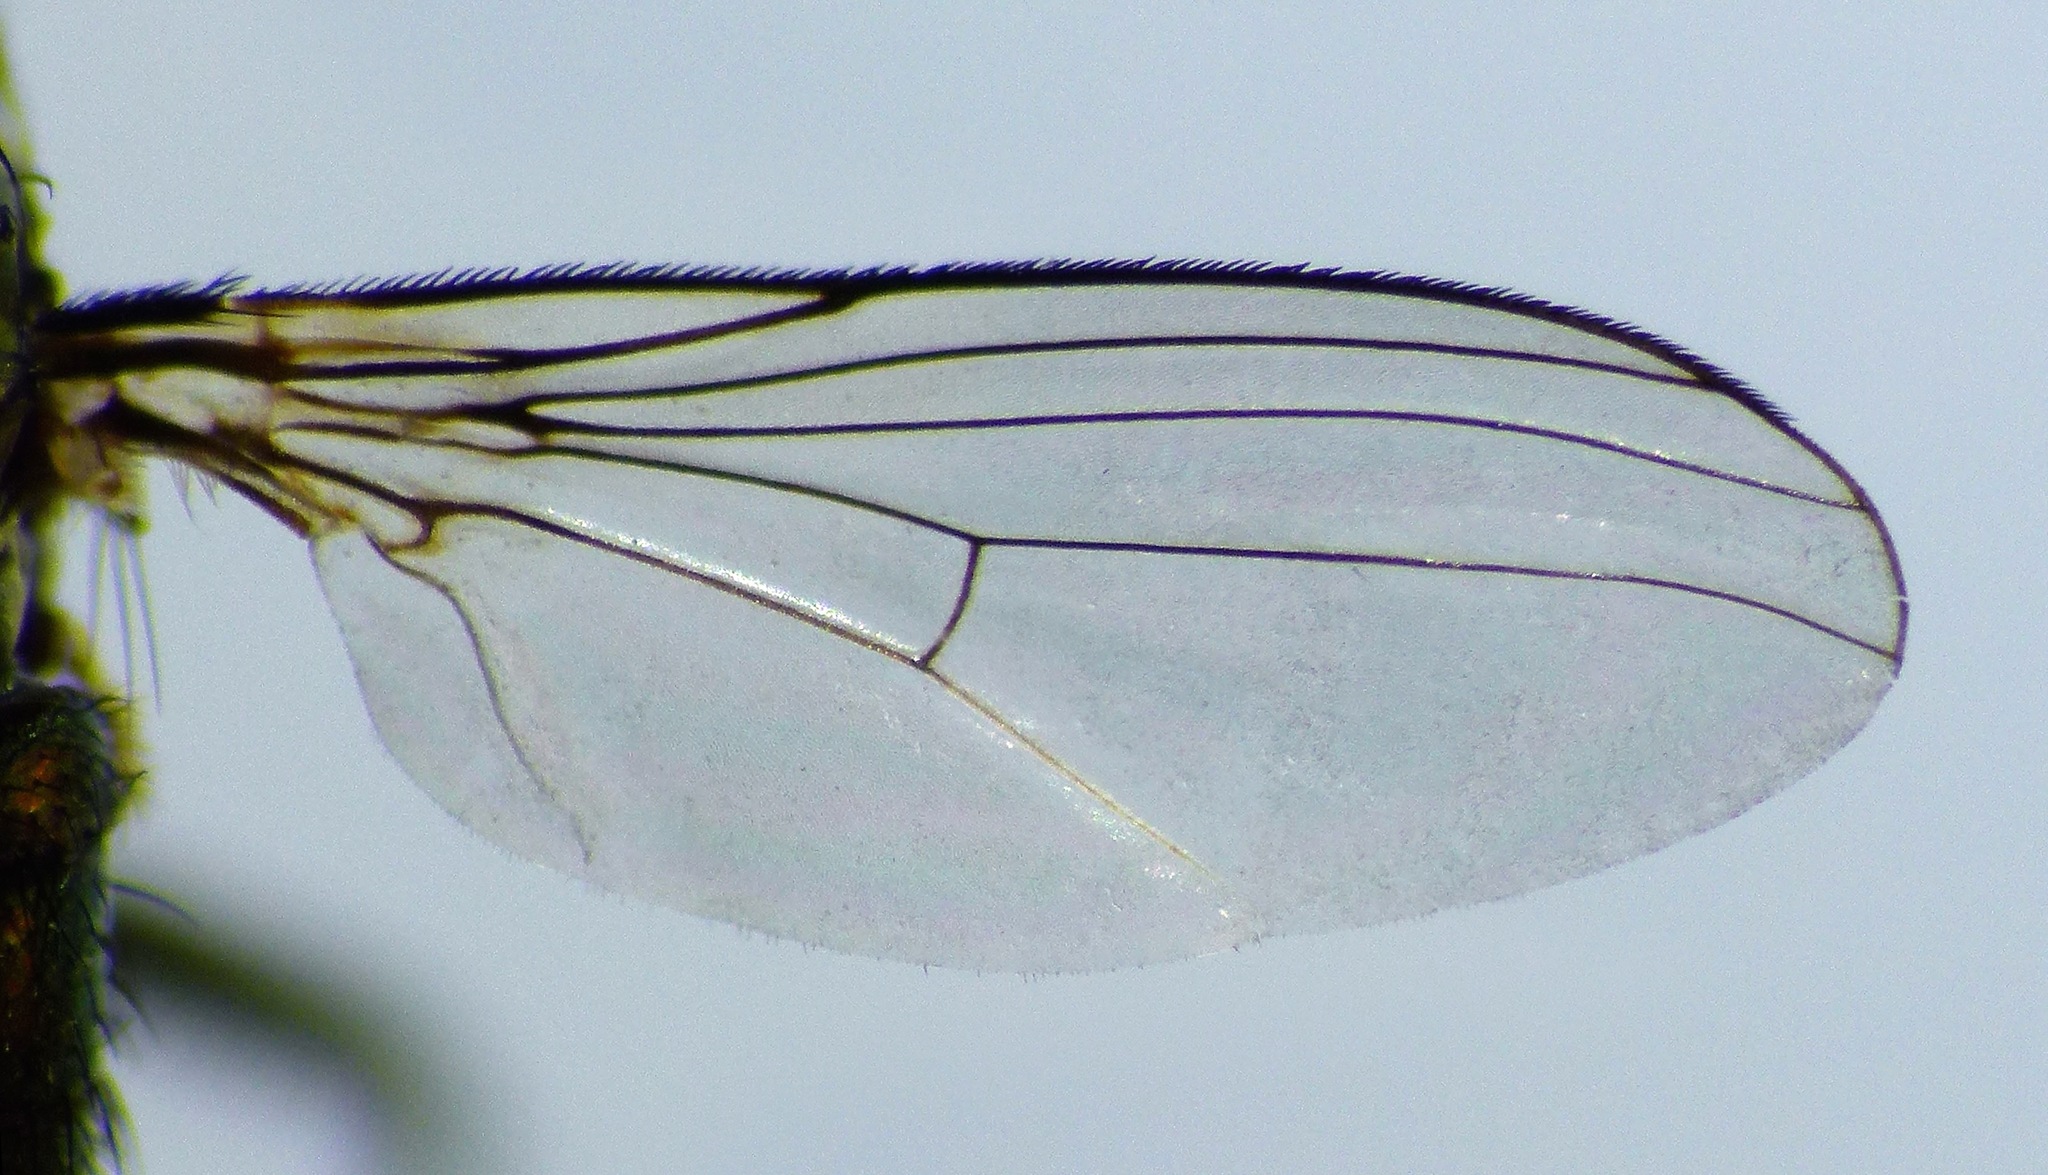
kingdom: Animalia
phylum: Arthropoda
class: Insecta
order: Diptera
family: Dolichopodidae
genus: Diaphorus
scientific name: Diaphorus parapraestans
